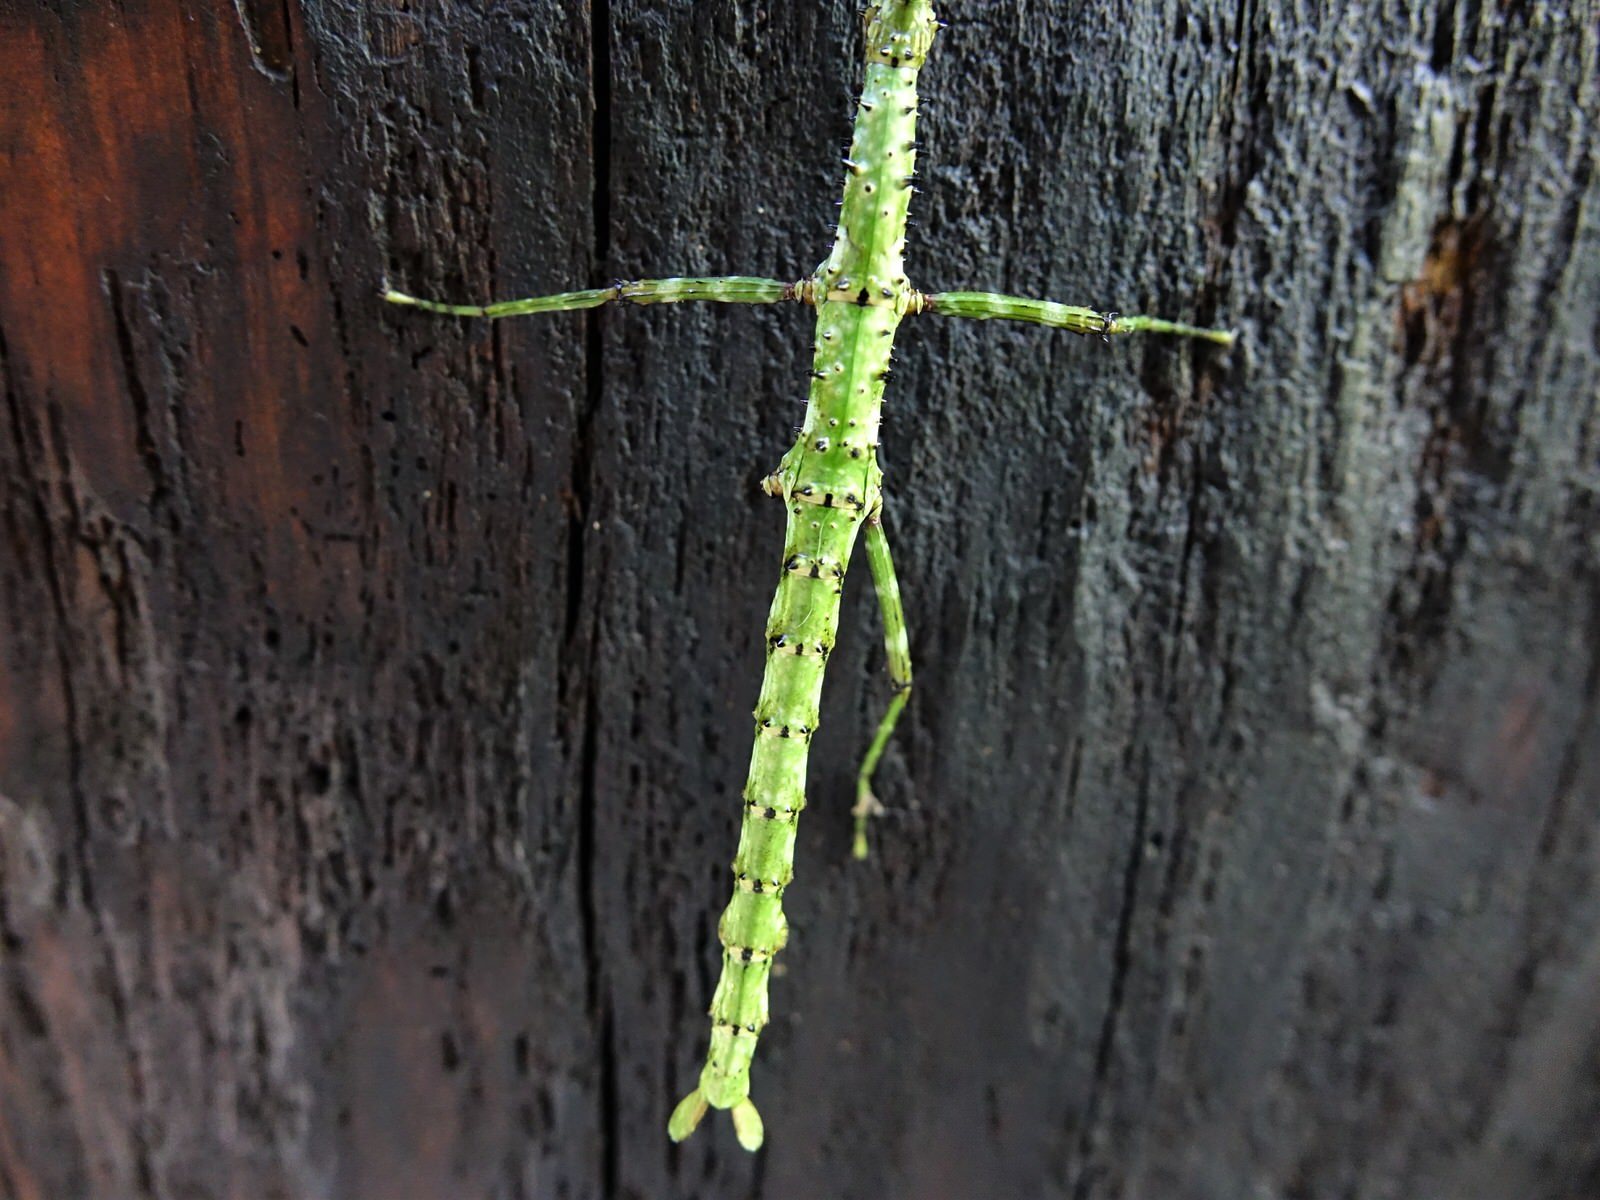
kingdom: Animalia
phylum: Arthropoda
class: Insecta
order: Phasmida
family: Phasmatidae
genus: Acanthoxyla
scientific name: Acanthoxyla prasina
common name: Black-spined stick insect
